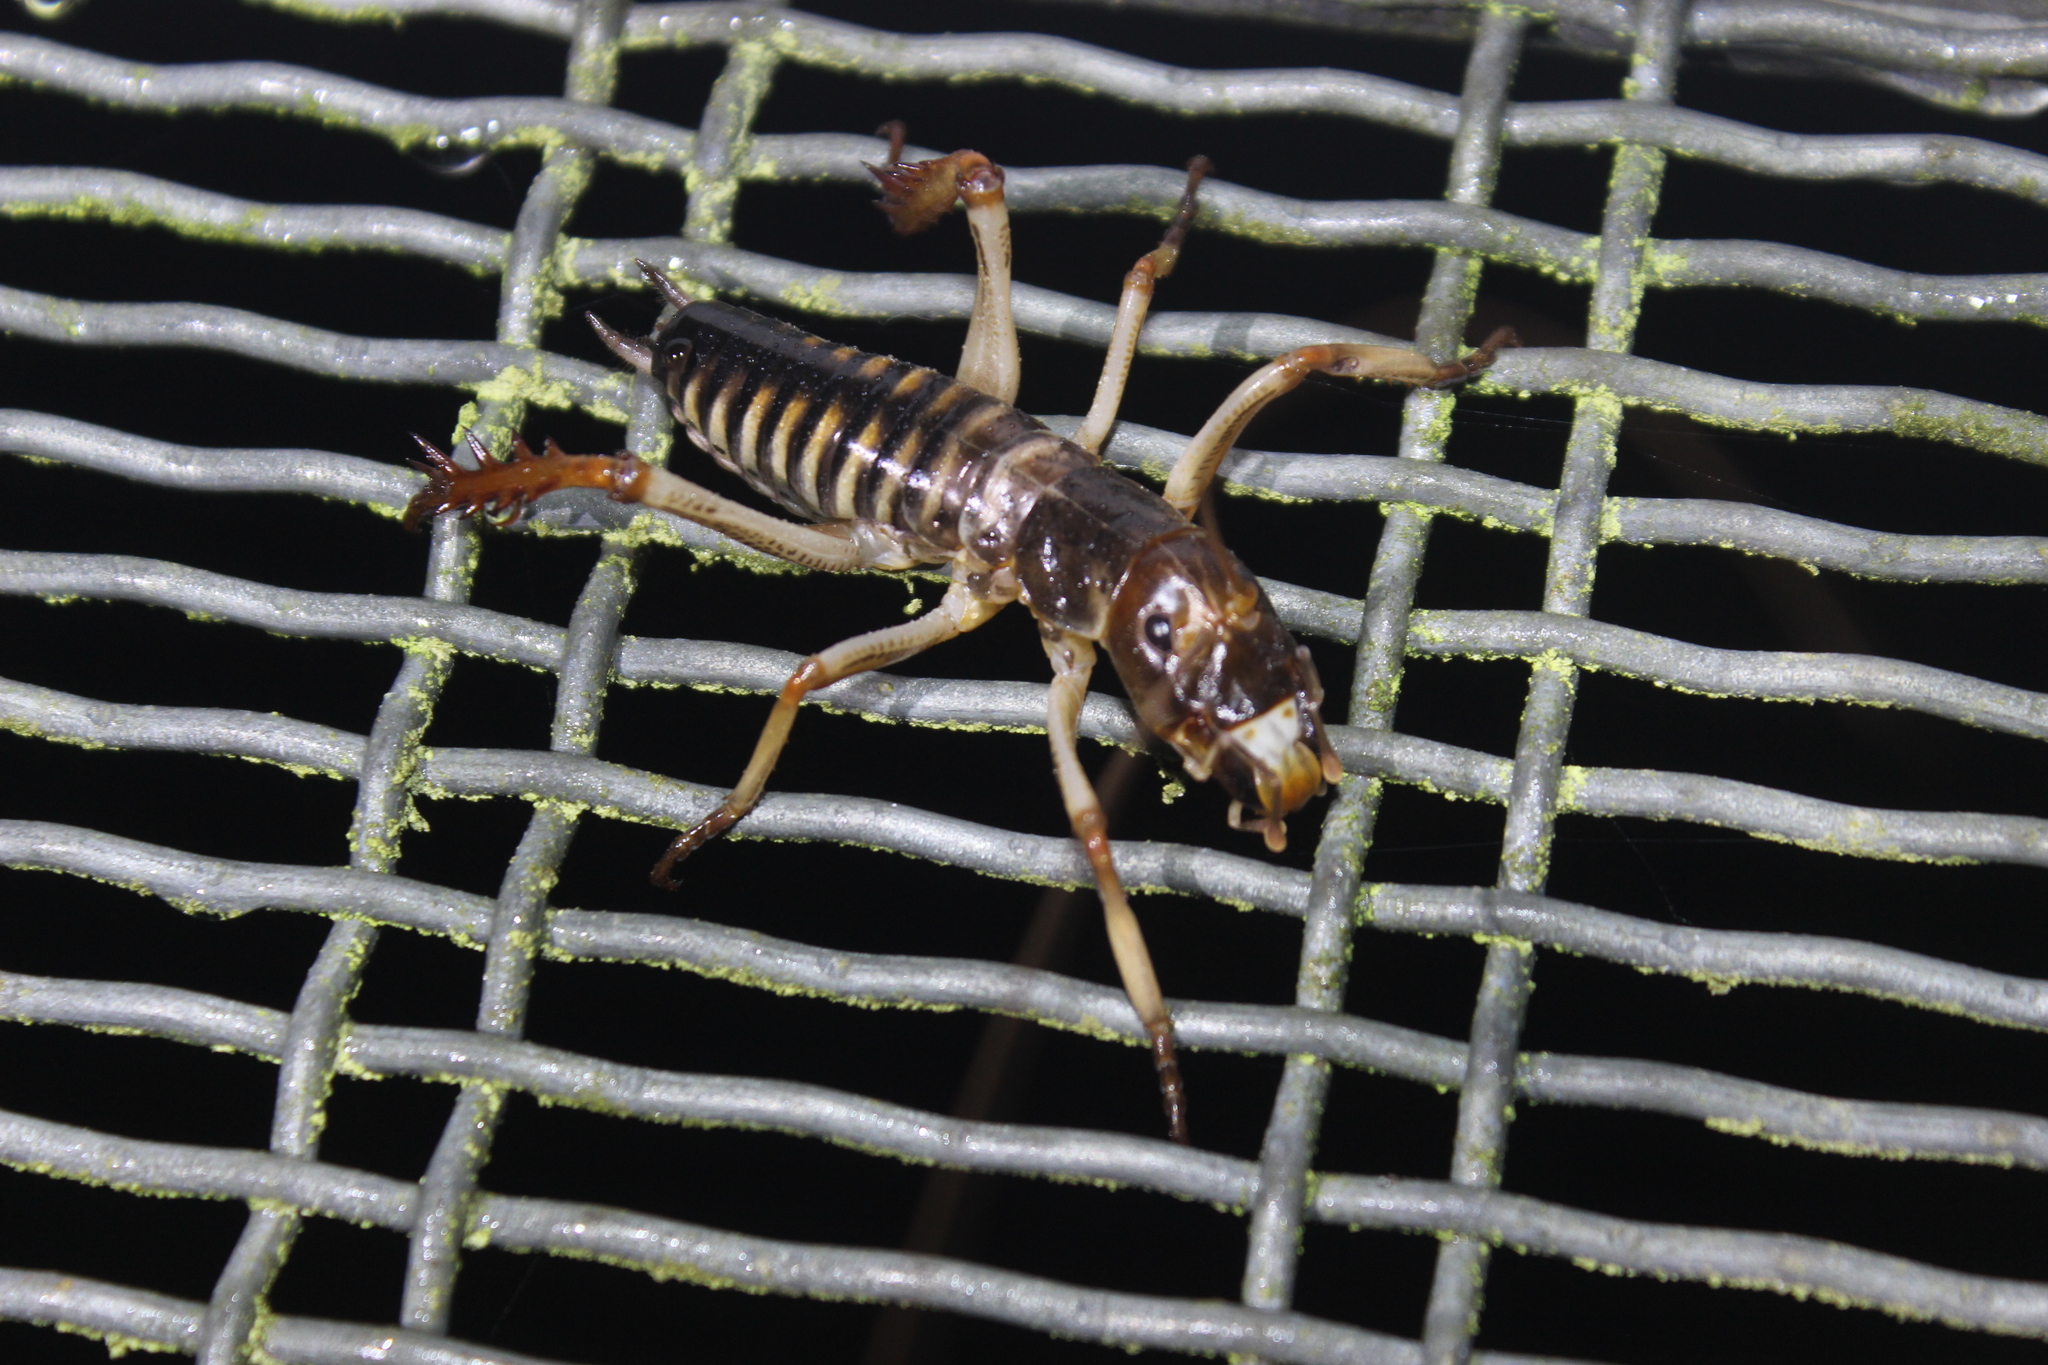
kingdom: Animalia
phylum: Arthropoda
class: Insecta
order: Orthoptera
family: Anostostomatidae
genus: Hemideina
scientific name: Hemideina crassidens
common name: Wellington tree weta
